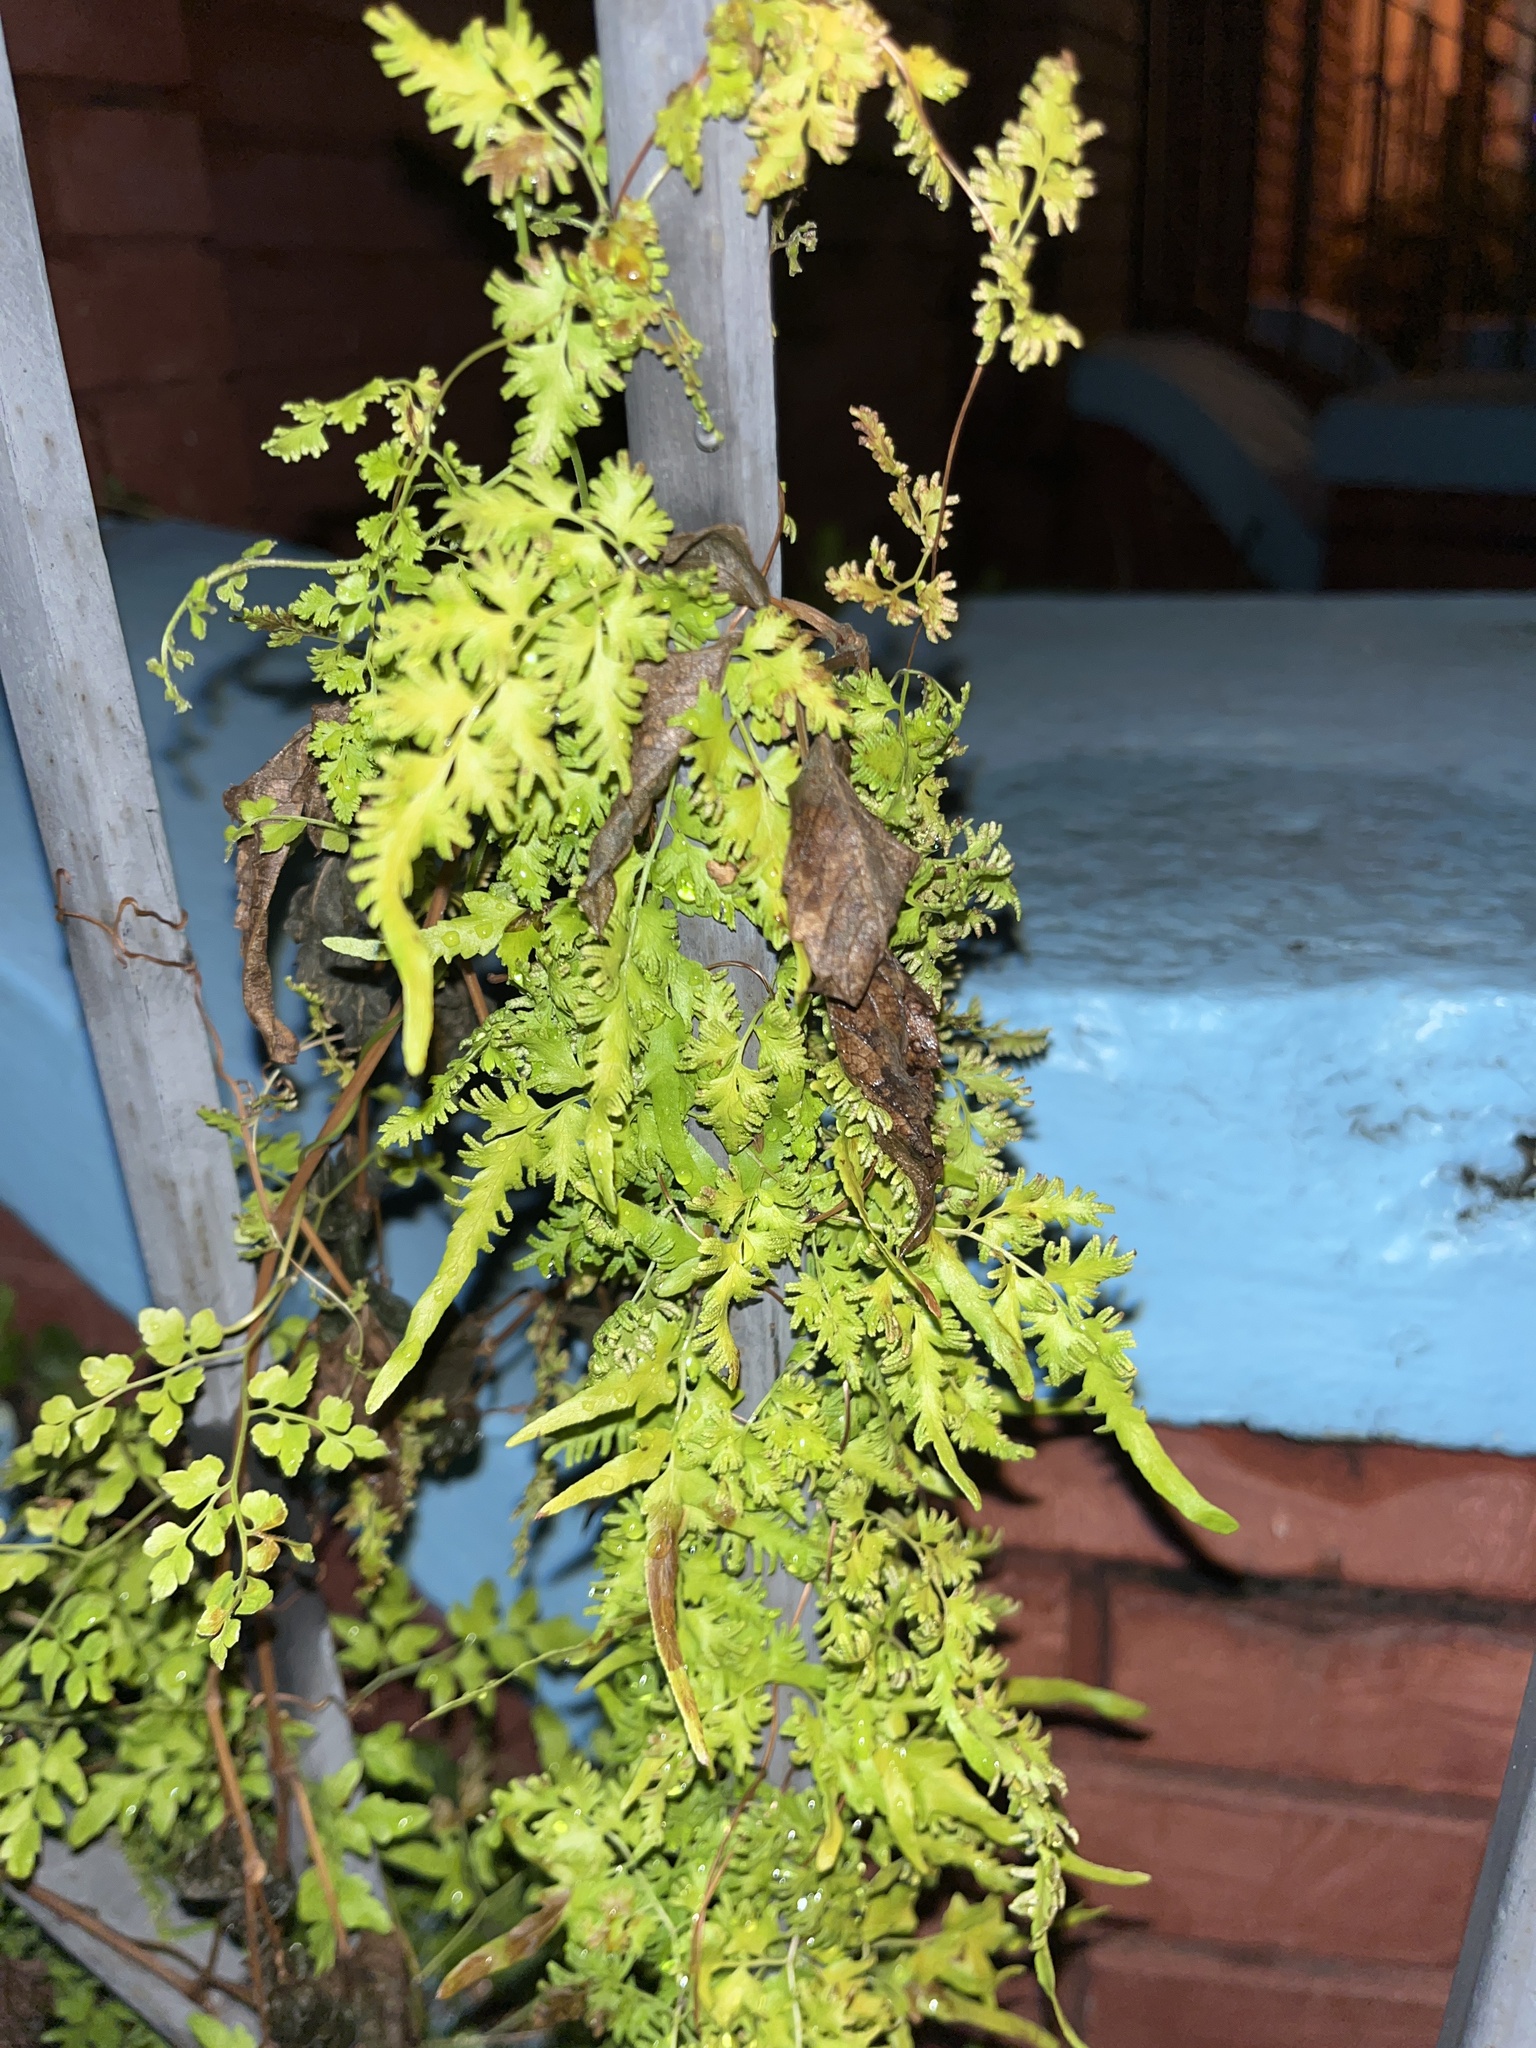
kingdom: Plantae
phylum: Tracheophyta
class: Polypodiopsida
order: Schizaeales
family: Lygodiaceae
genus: Lygodium
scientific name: Lygodium japonicum
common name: Japanese climbing fern
